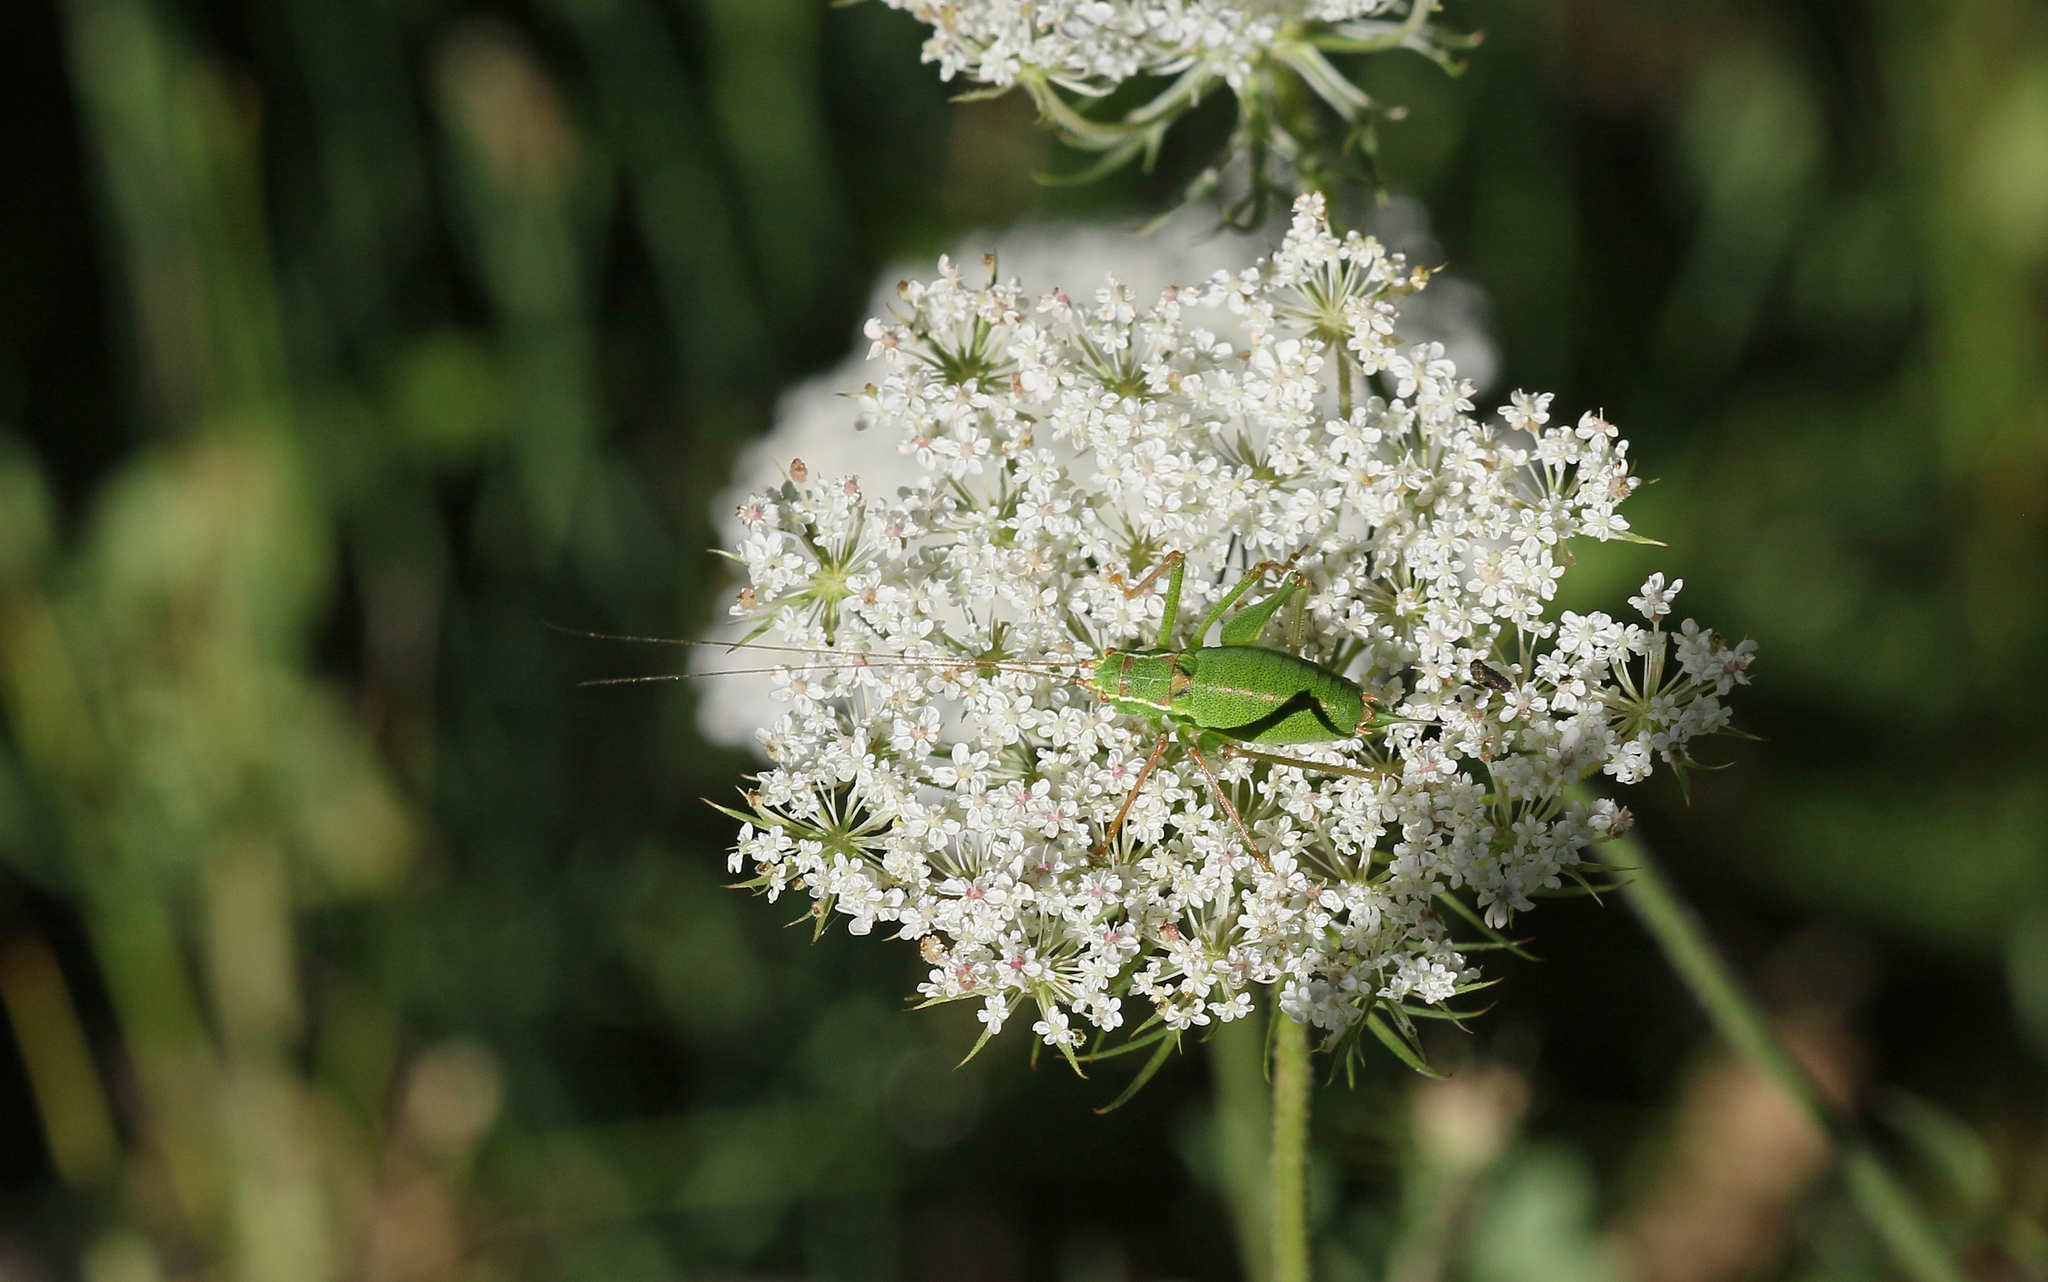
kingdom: Animalia
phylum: Arthropoda
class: Insecta
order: Orthoptera
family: Tettigoniidae
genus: Leptophyes
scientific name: Leptophyes punctatissima
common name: Speckled bush-cricket
